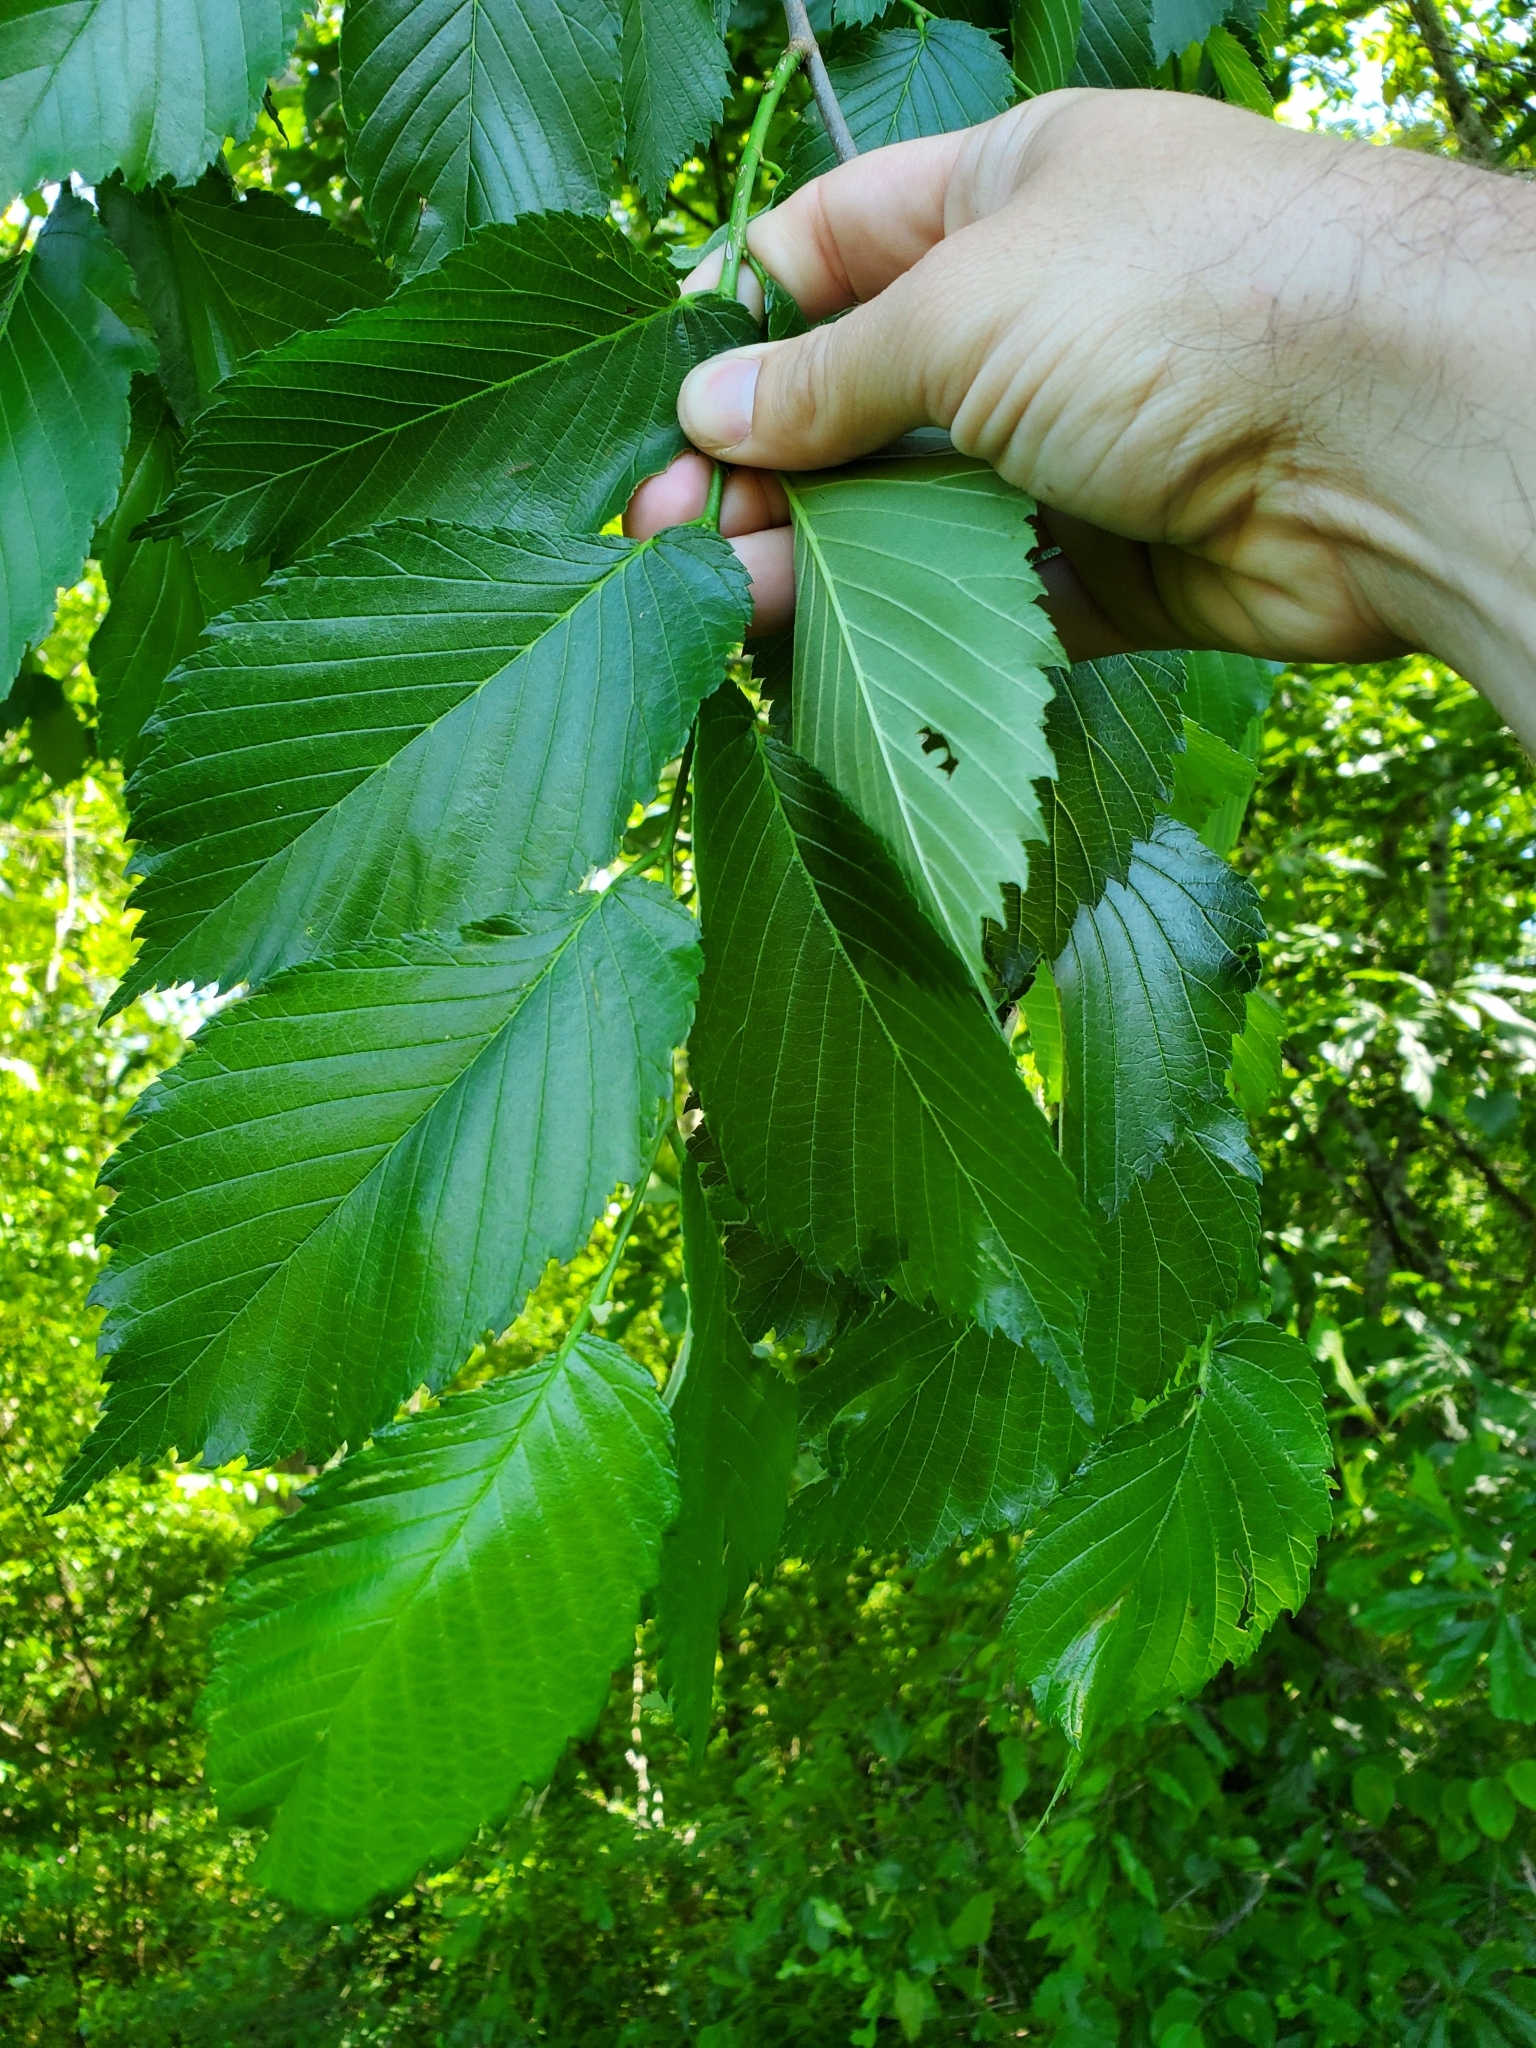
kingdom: Plantae
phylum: Tracheophyta
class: Magnoliopsida
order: Rosales
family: Ulmaceae
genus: Ulmus
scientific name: Ulmus americana
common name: American elm
